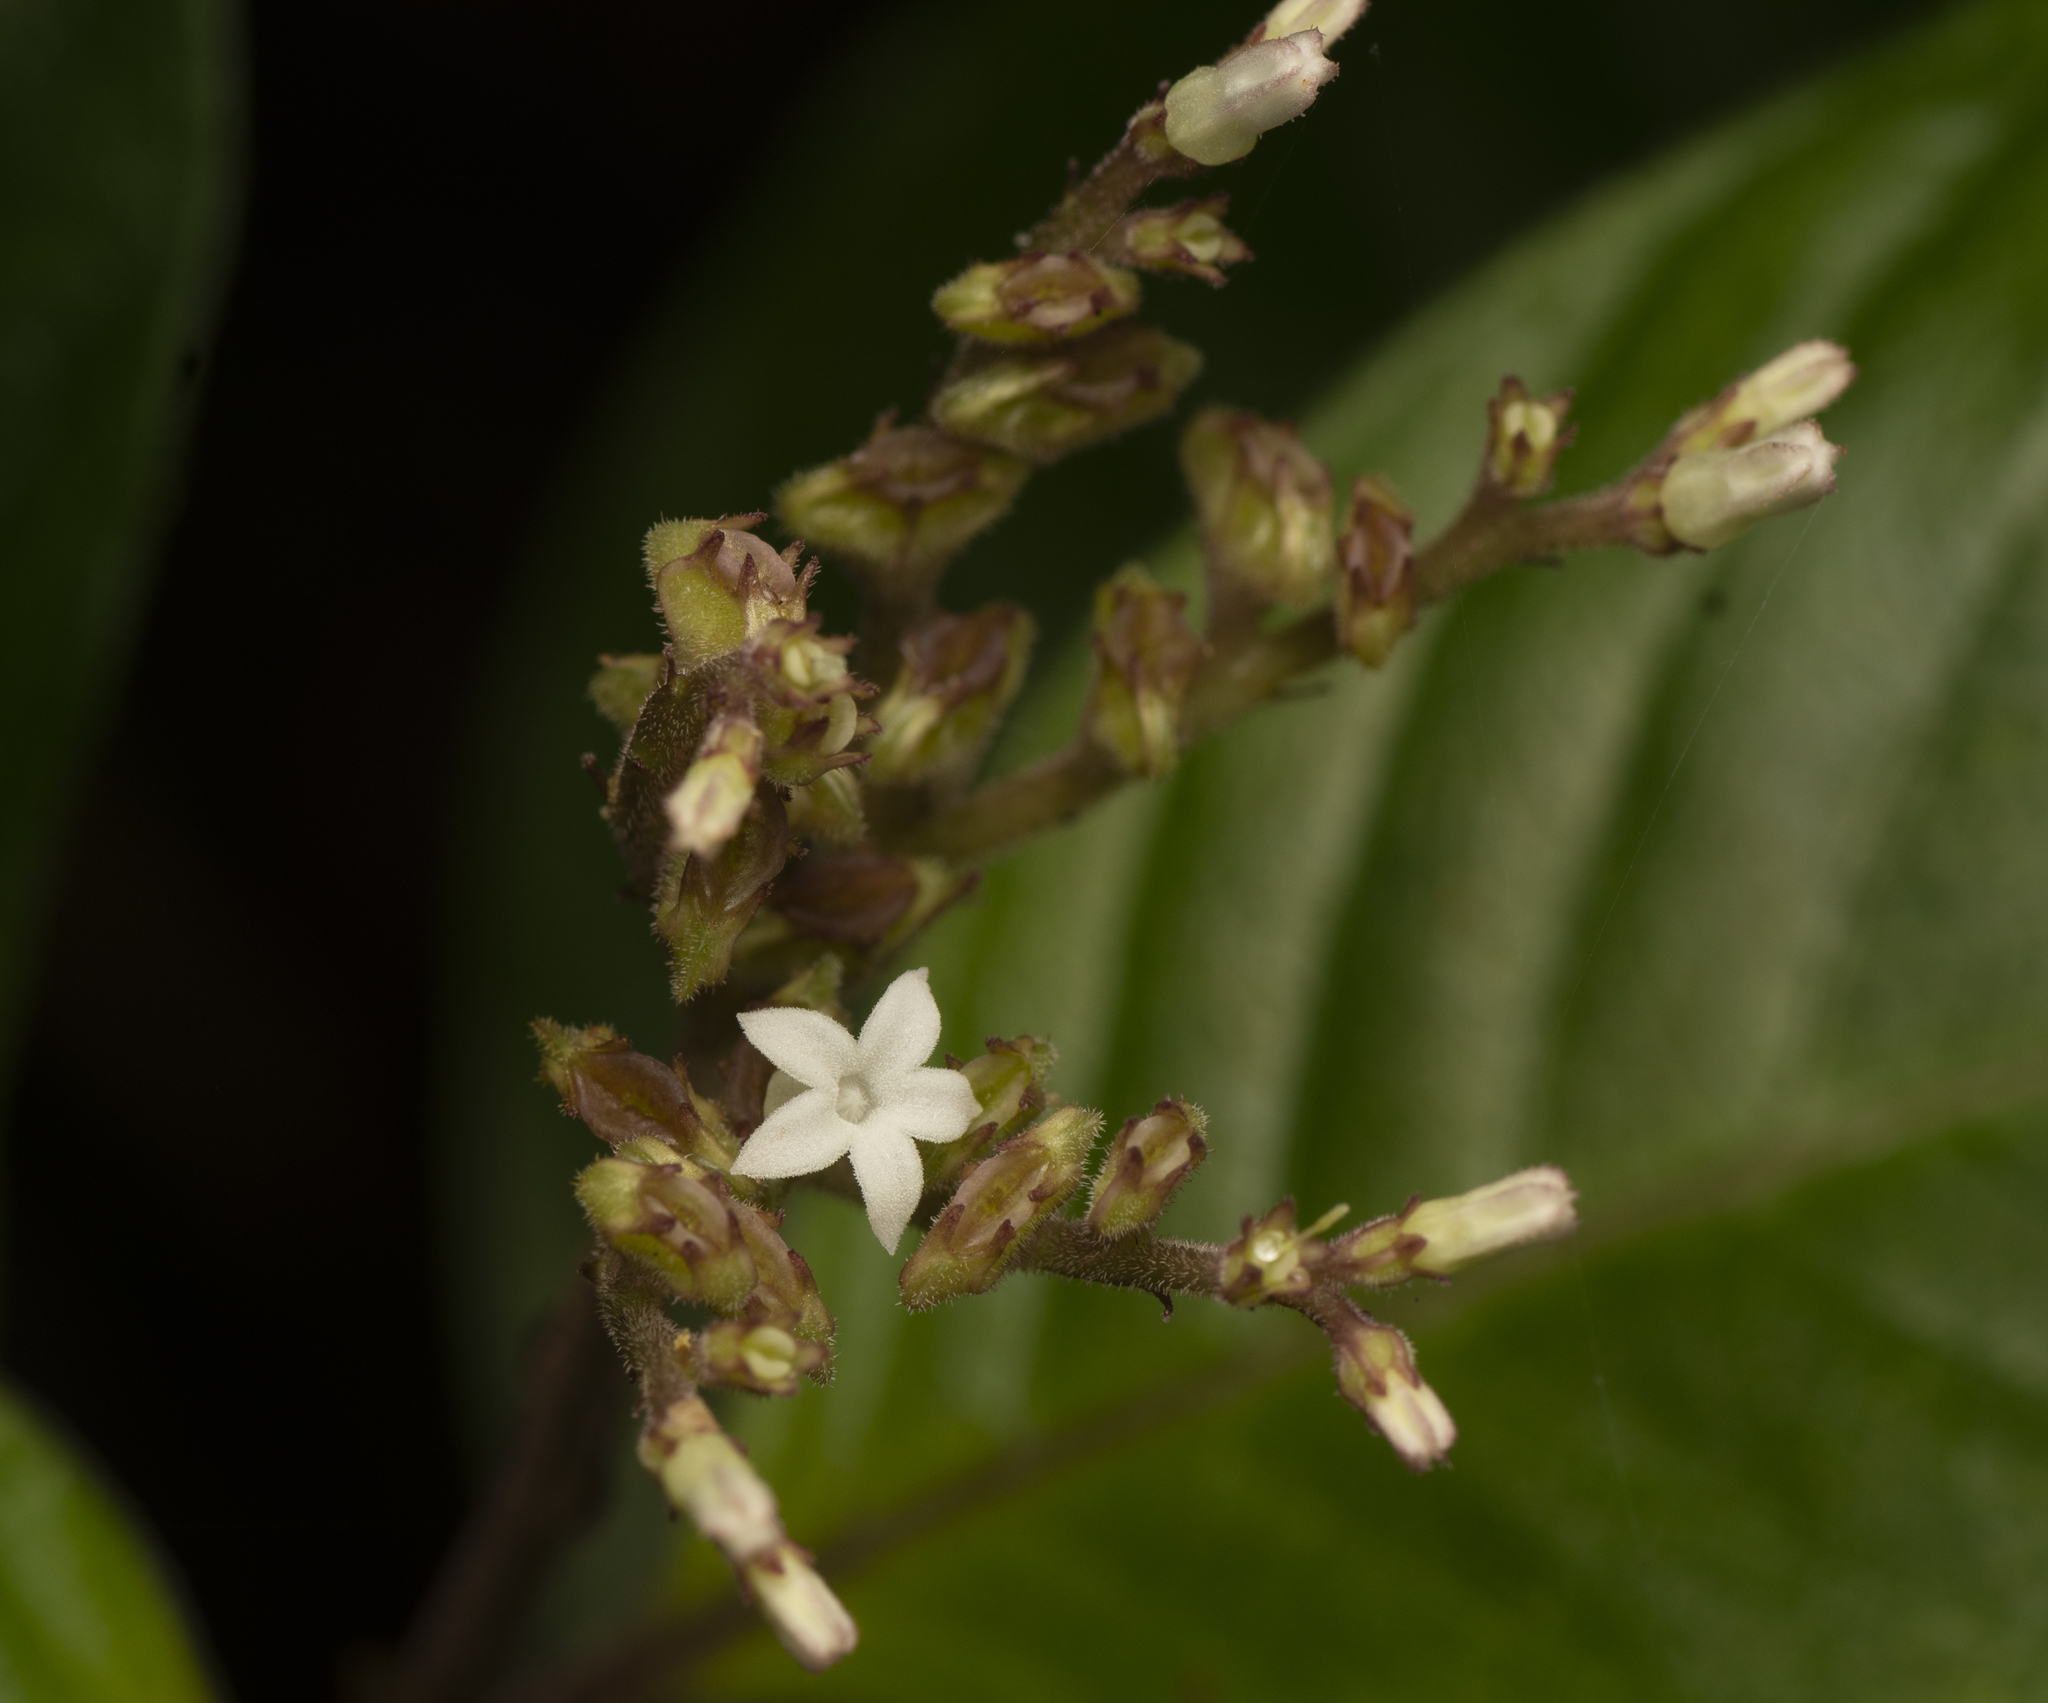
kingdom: Plantae
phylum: Tracheophyta
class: Magnoliopsida
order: Gentianales
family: Rubiaceae
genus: Ophiorrhiza
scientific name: Ophiorrhiza australiana
